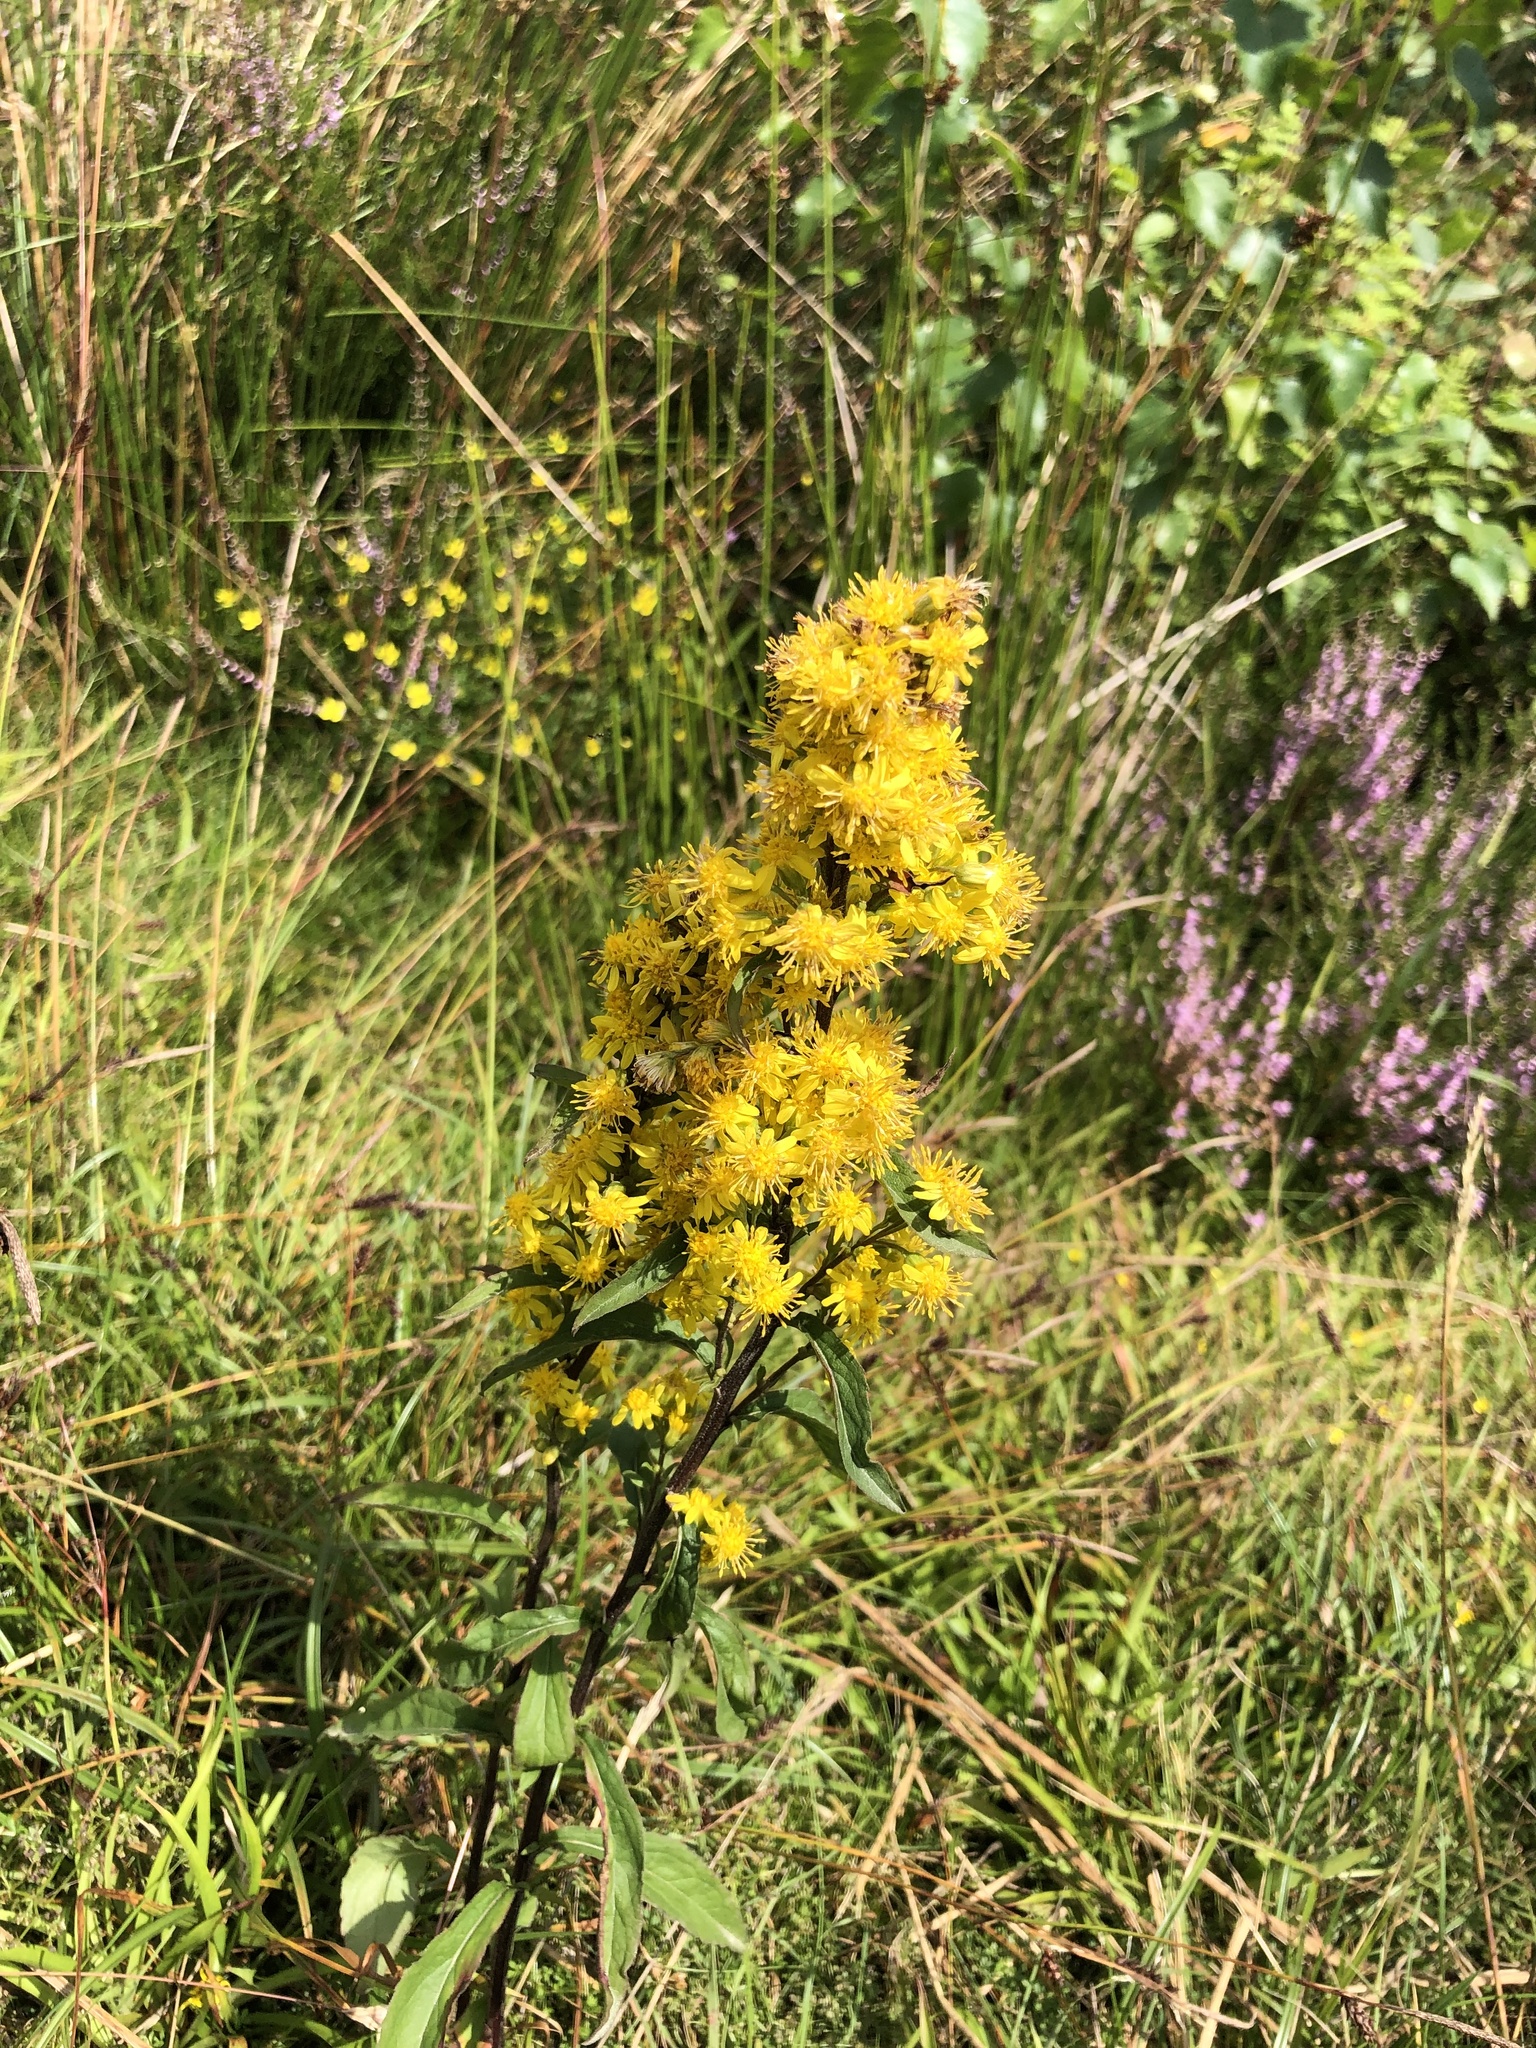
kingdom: Plantae
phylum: Tracheophyta
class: Magnoliopsida
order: Asterales
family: Asteraceae
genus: Solidago
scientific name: Solidago virgaurea
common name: Goldenrod
